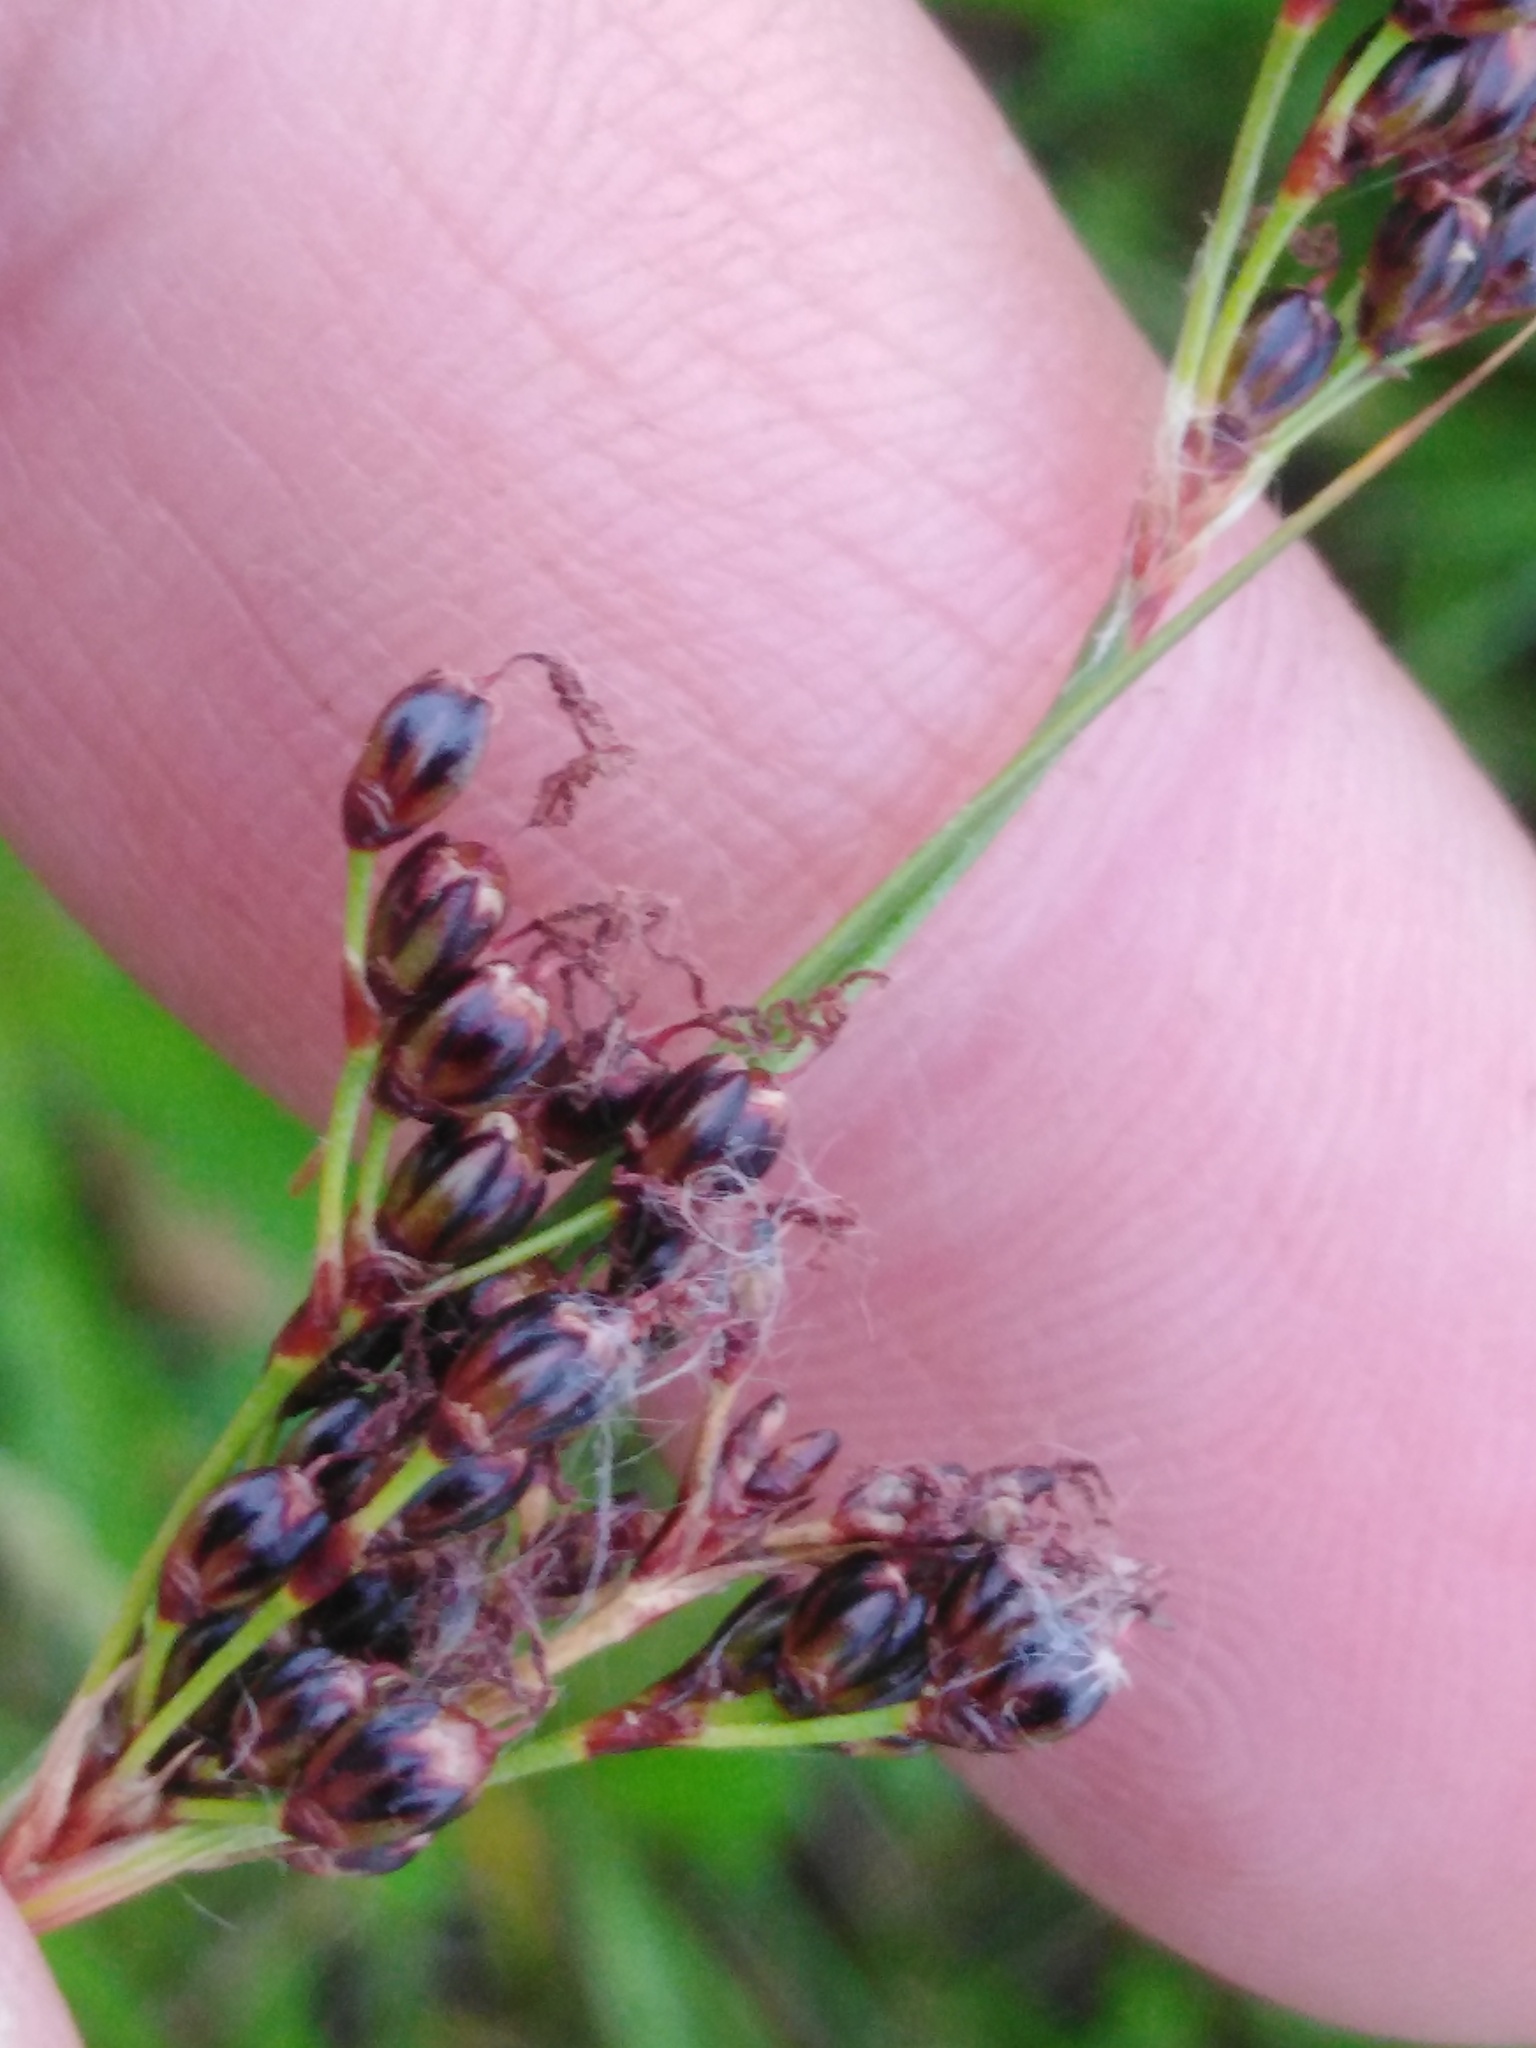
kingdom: Plantae
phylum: Tracheophyta
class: Liliopsida
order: Poales
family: Juncaceae
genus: Juncus
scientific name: Juncus gerardi
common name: Saltmarsh rush
